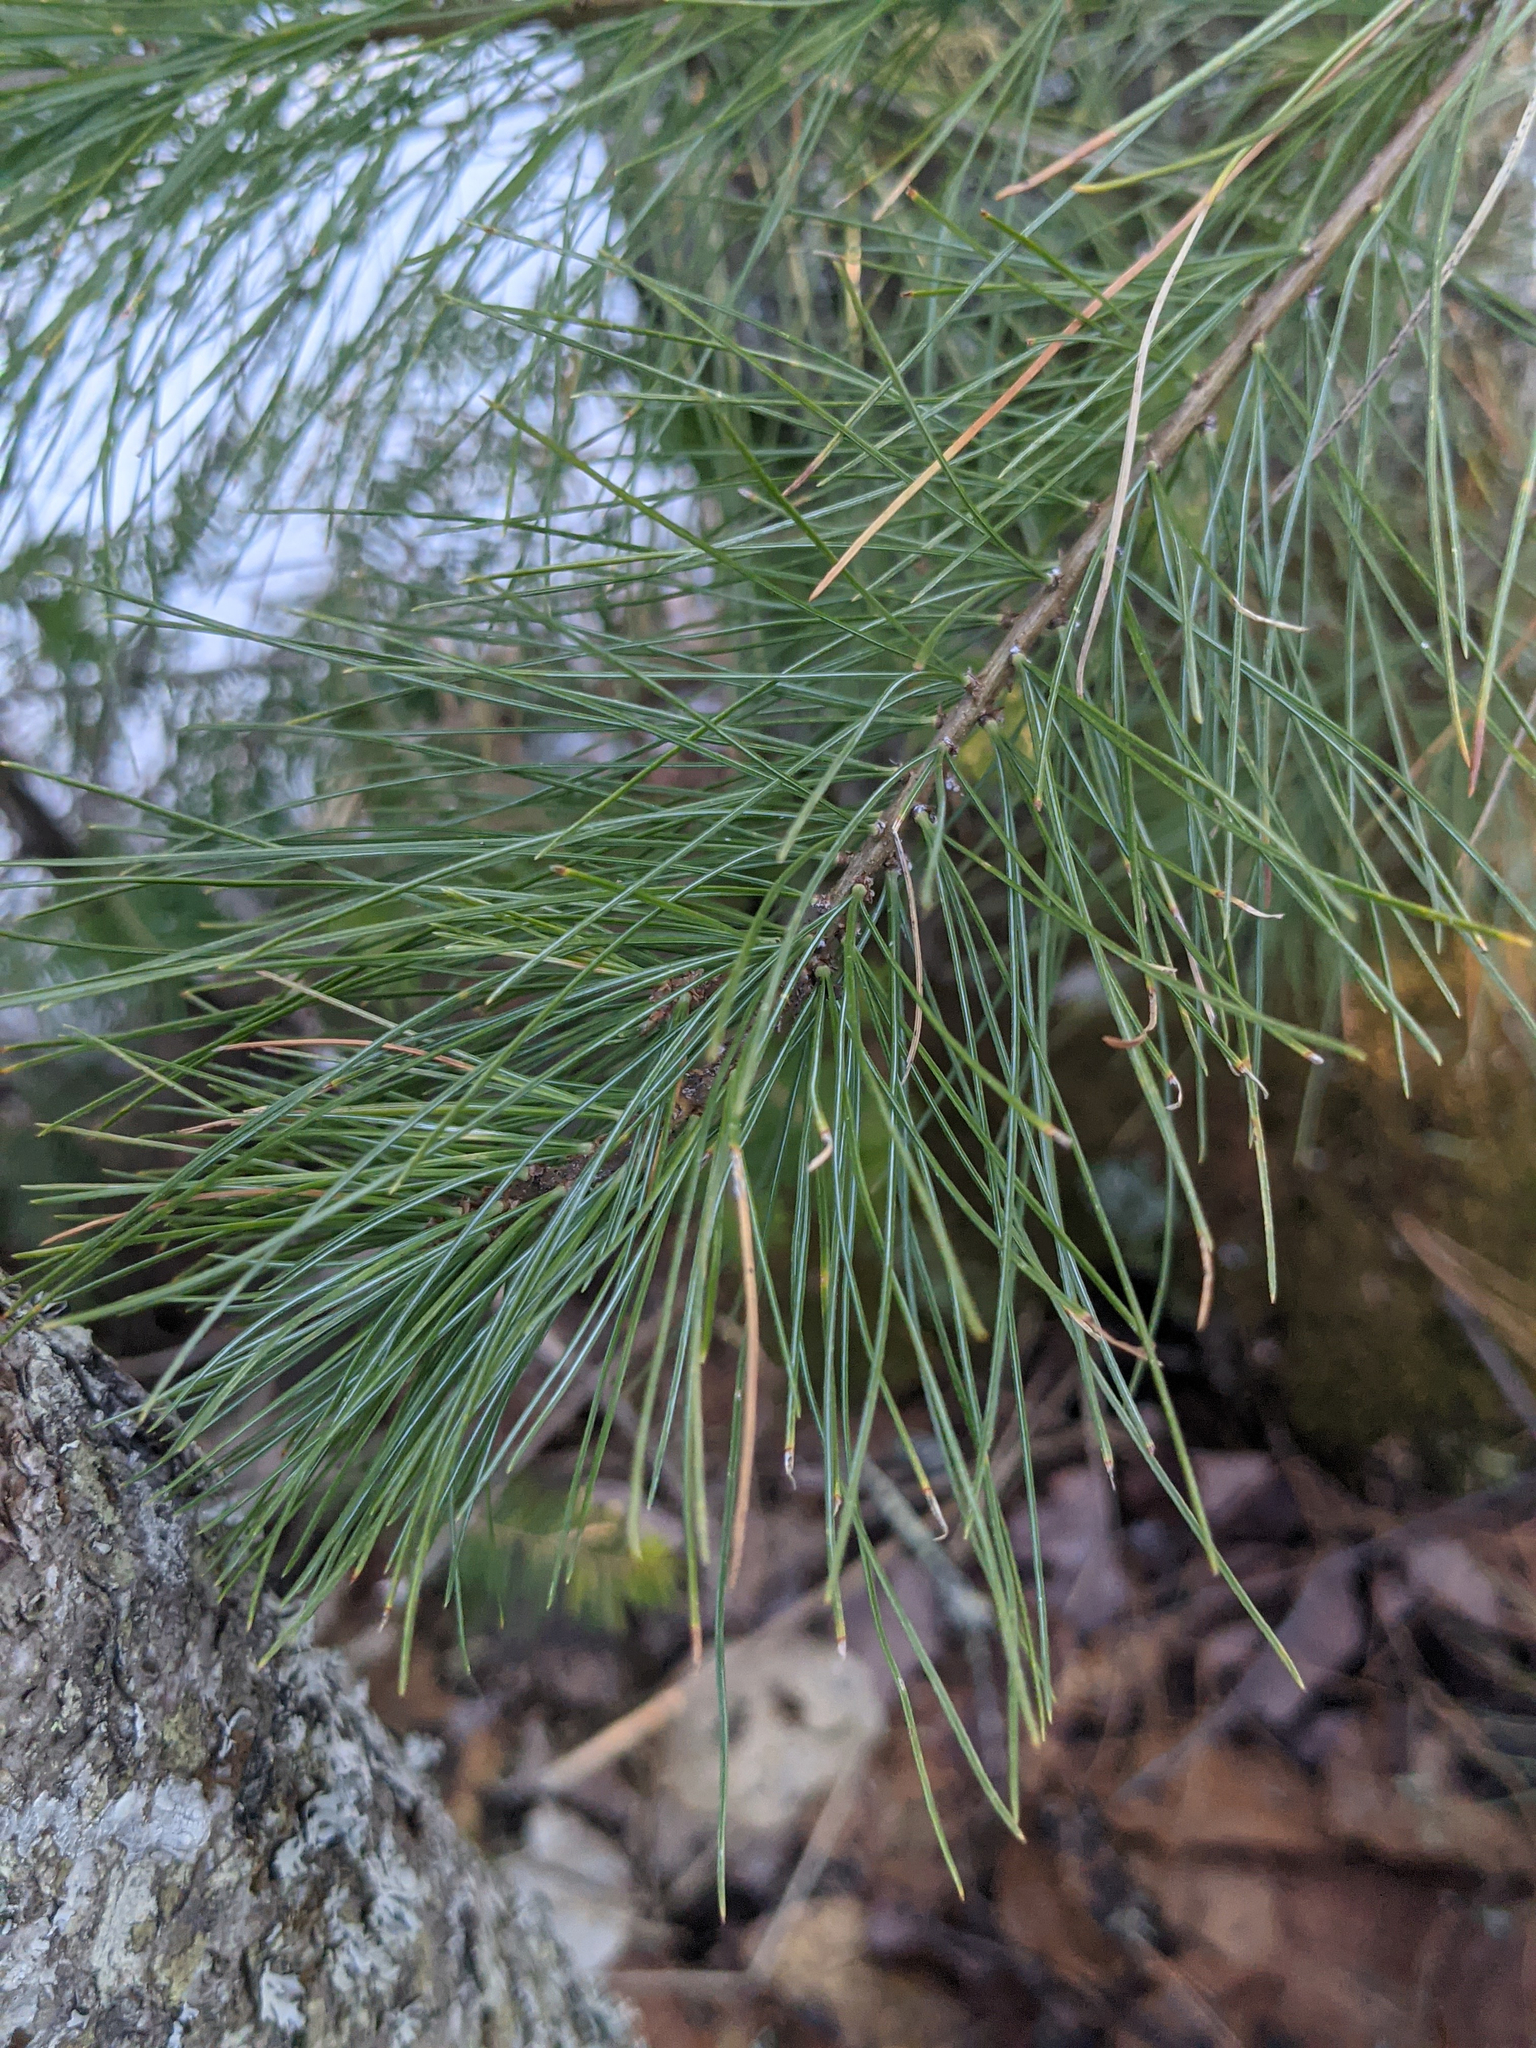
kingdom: Plantae
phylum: Tracheophyta
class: Pinopsida
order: Pinales
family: Pinaceae
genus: Pinus
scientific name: Pinus strobus
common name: Weymouth pine
